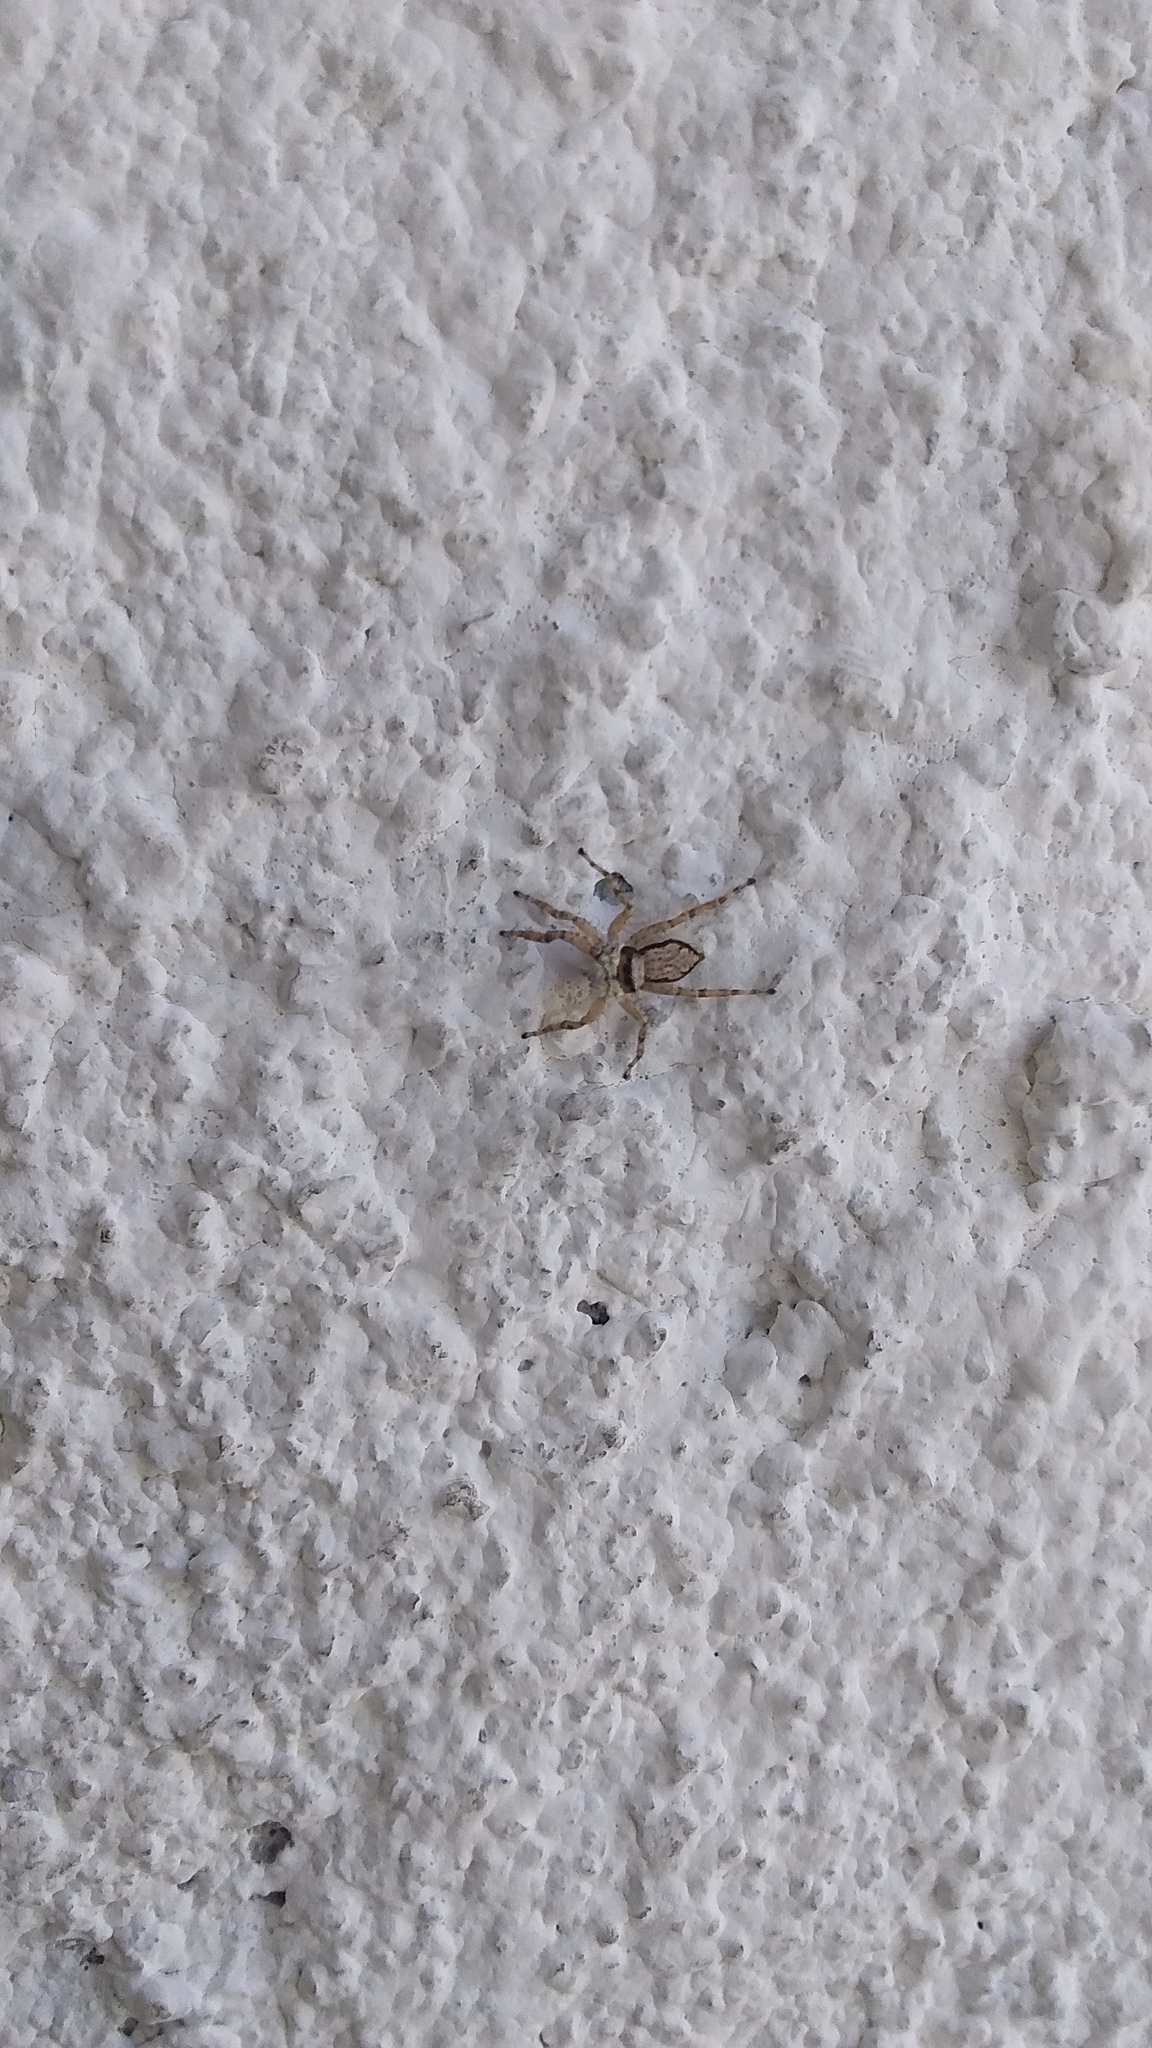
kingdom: Animalia
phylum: Arthropoda
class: Arachnida
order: Araneae
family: Salticidae
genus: Menemerus
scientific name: Menemerus bivittatus
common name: Gray wall jumper
